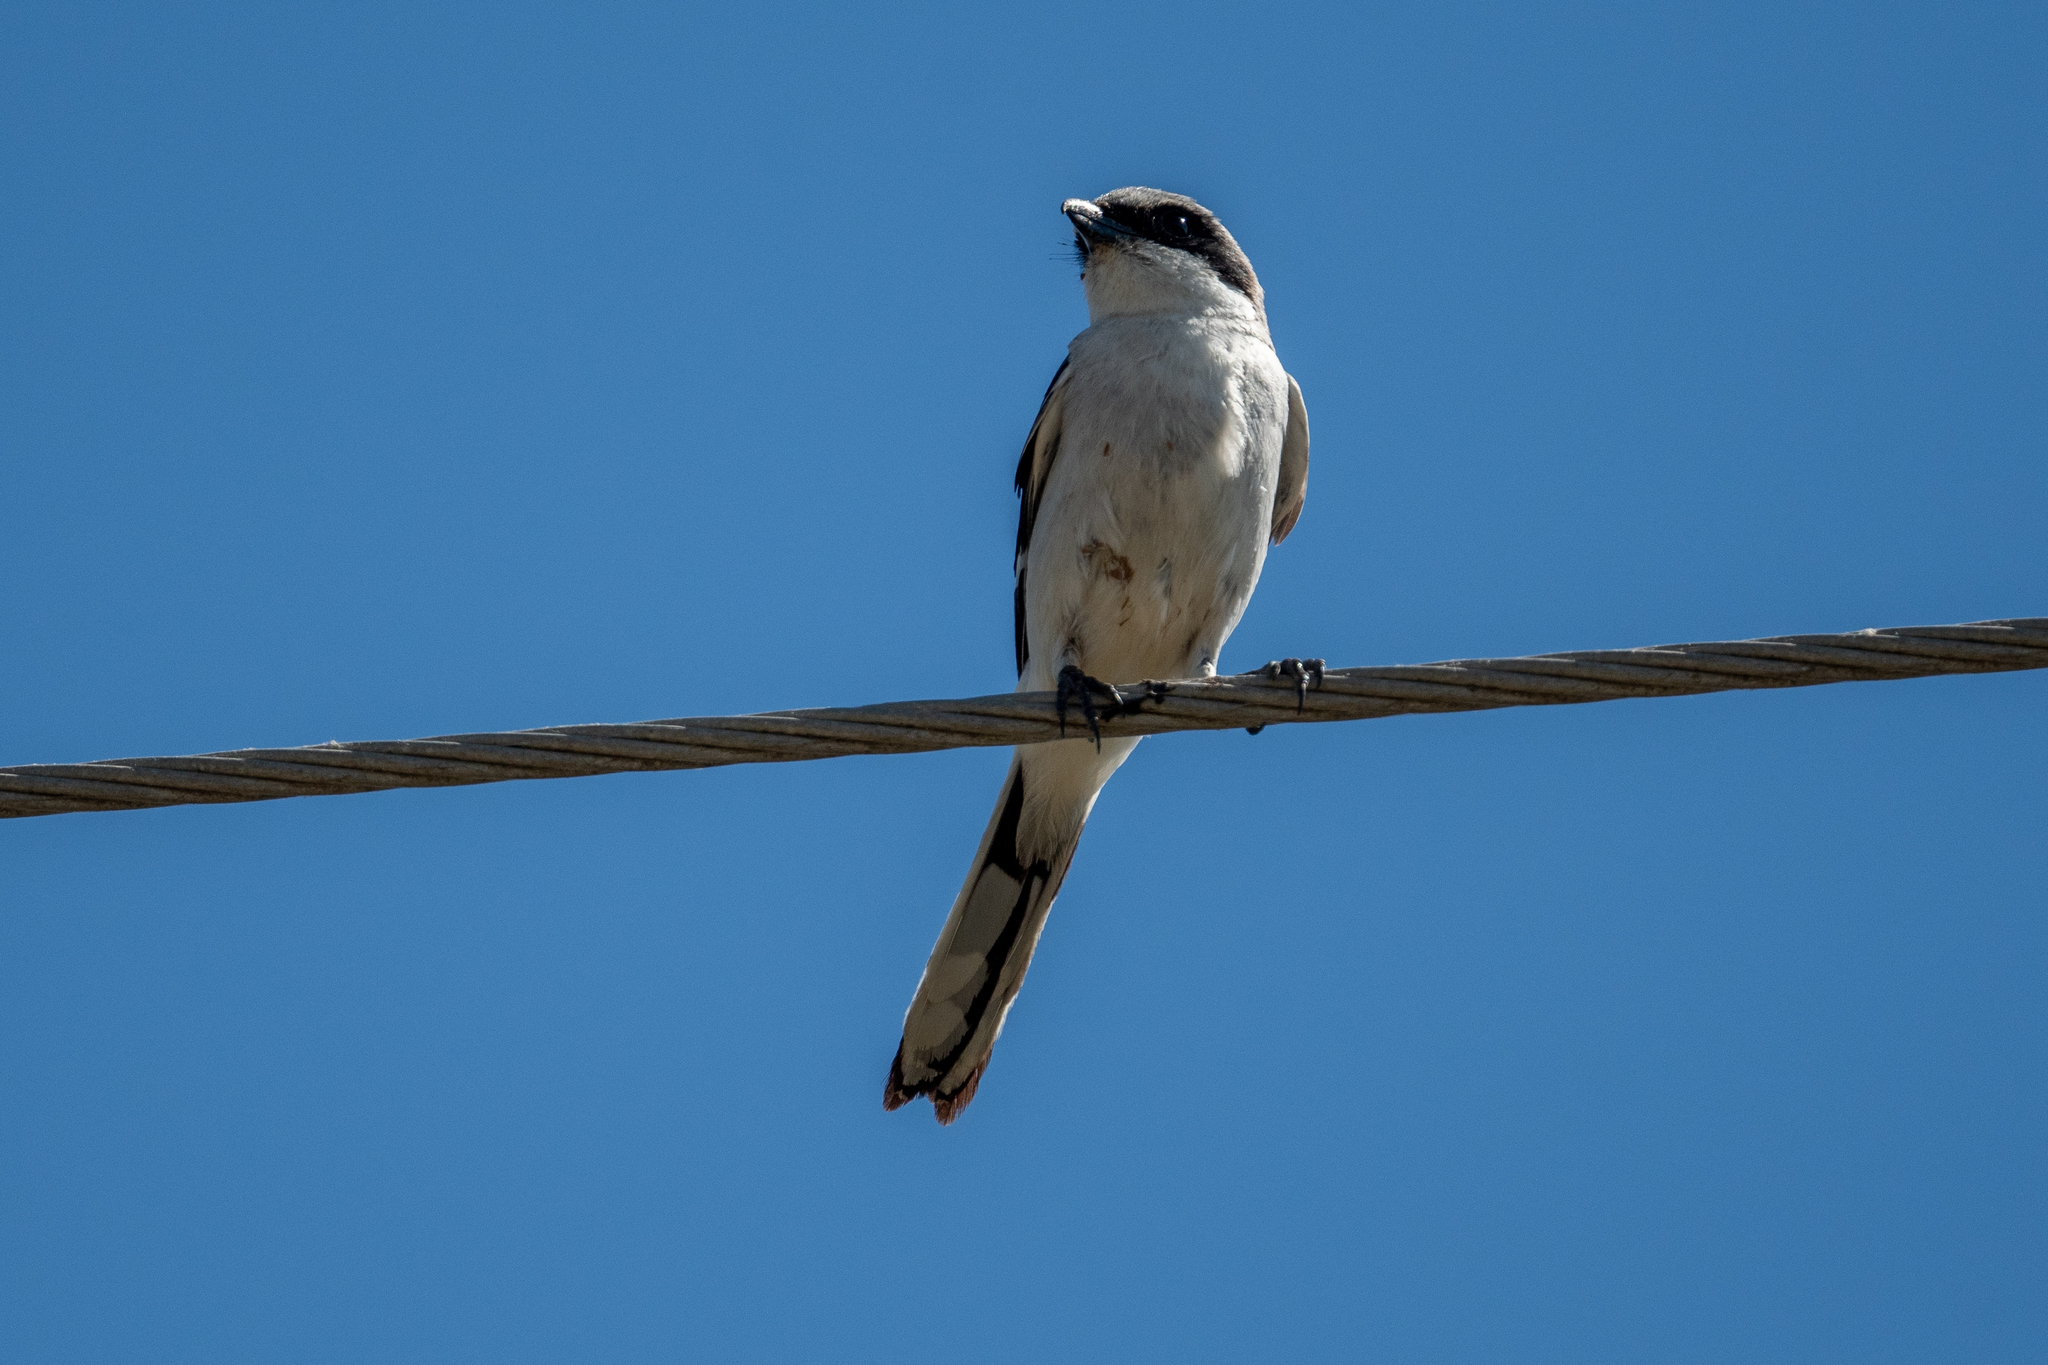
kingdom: Animalia
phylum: Chordata
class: Aves
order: Passeriformes
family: Laniidae
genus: Lanius
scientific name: Lanius ludovicianus
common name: Loggerhead shrike
